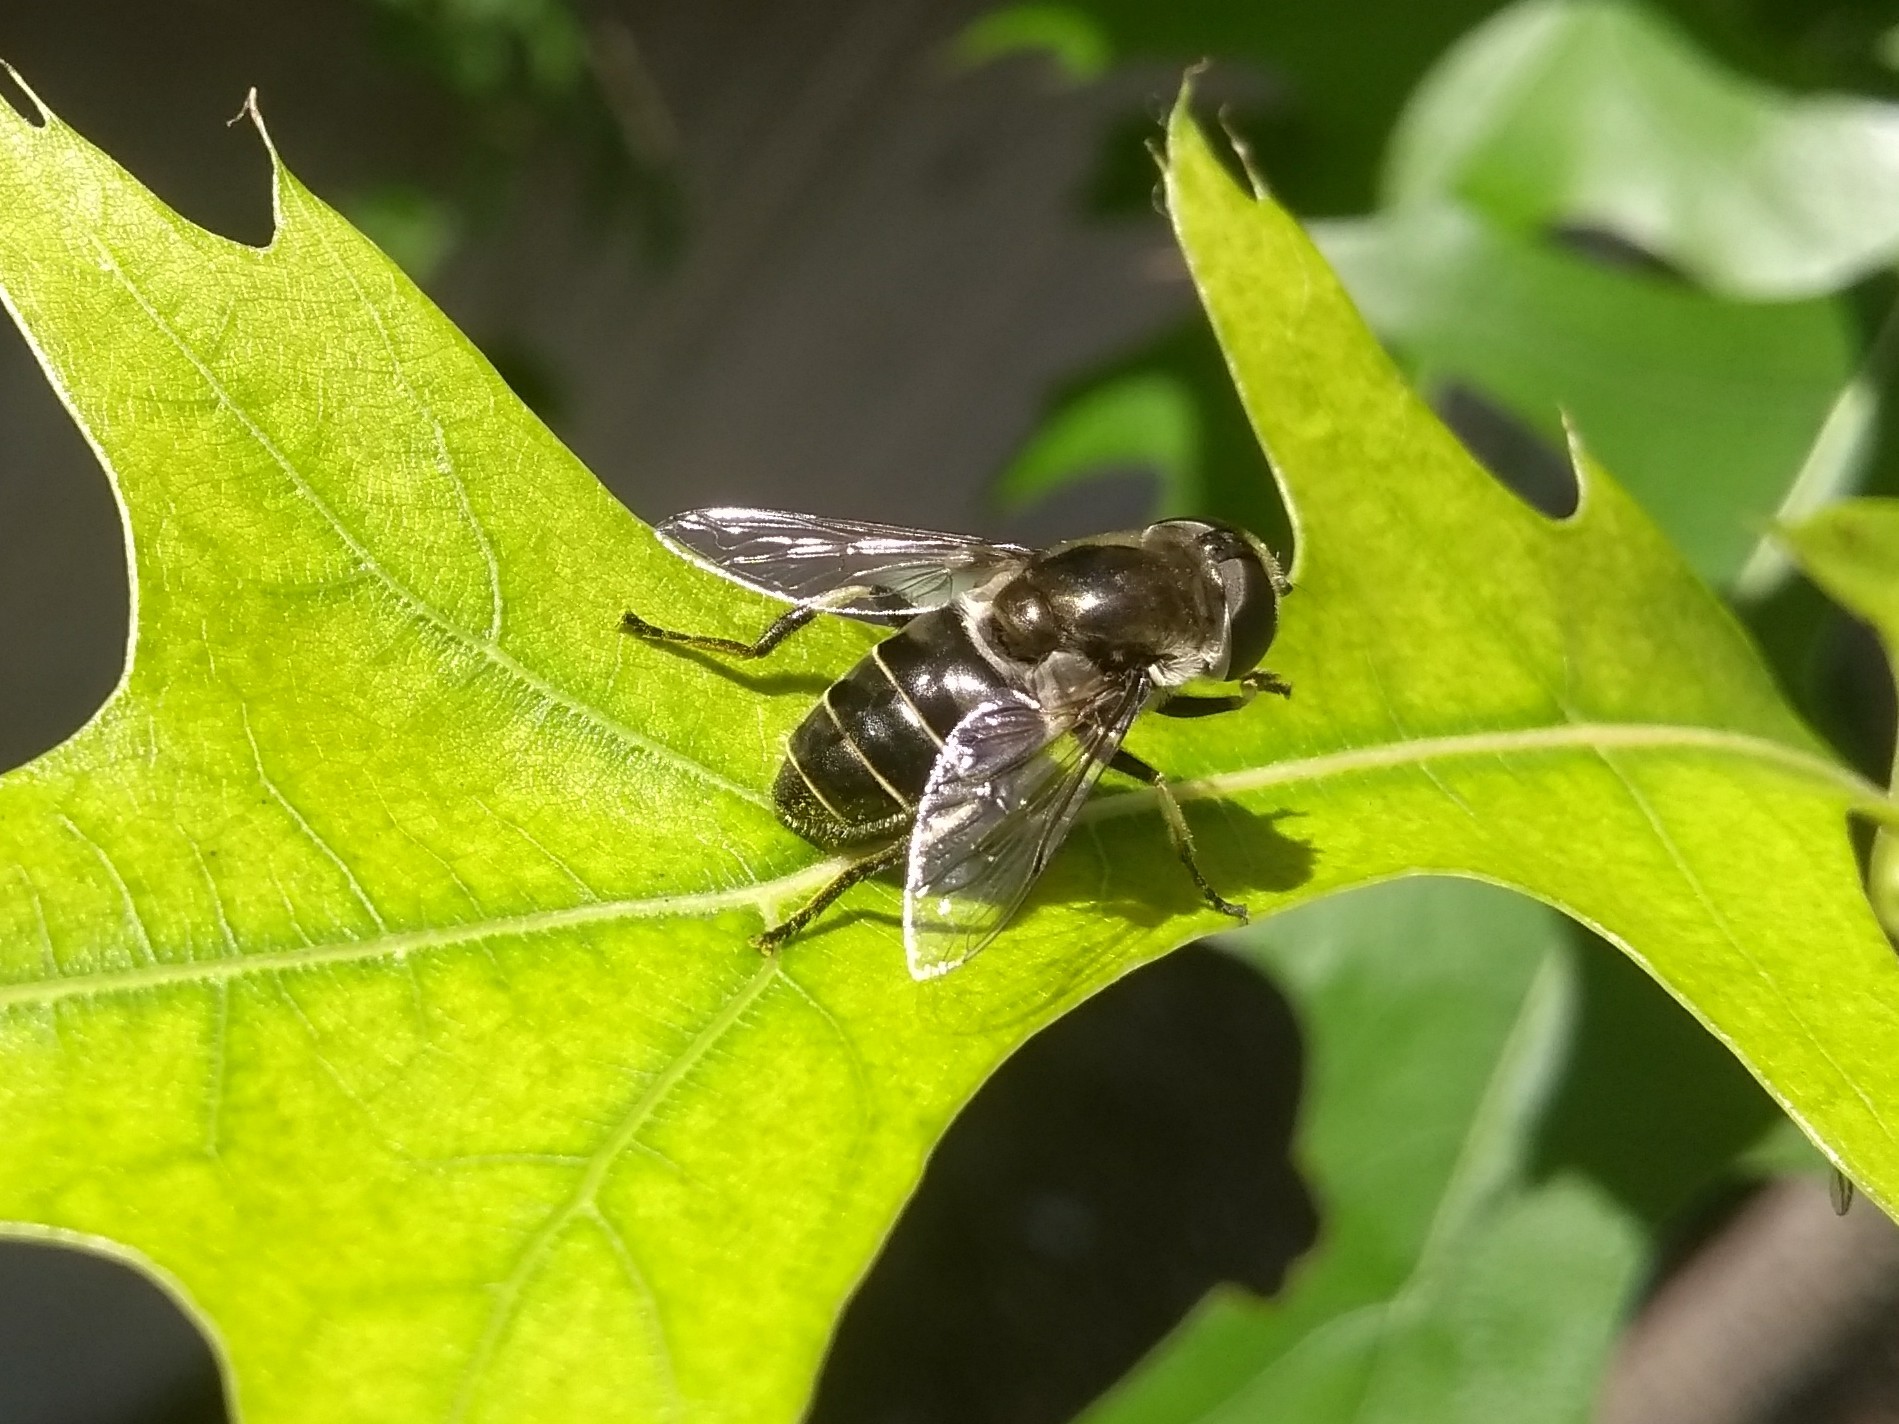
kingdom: Animalia
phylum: Arthropoda
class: Insecta
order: Diptera
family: Syrphidae
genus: Eristalis
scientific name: Eristalis dimidiata
